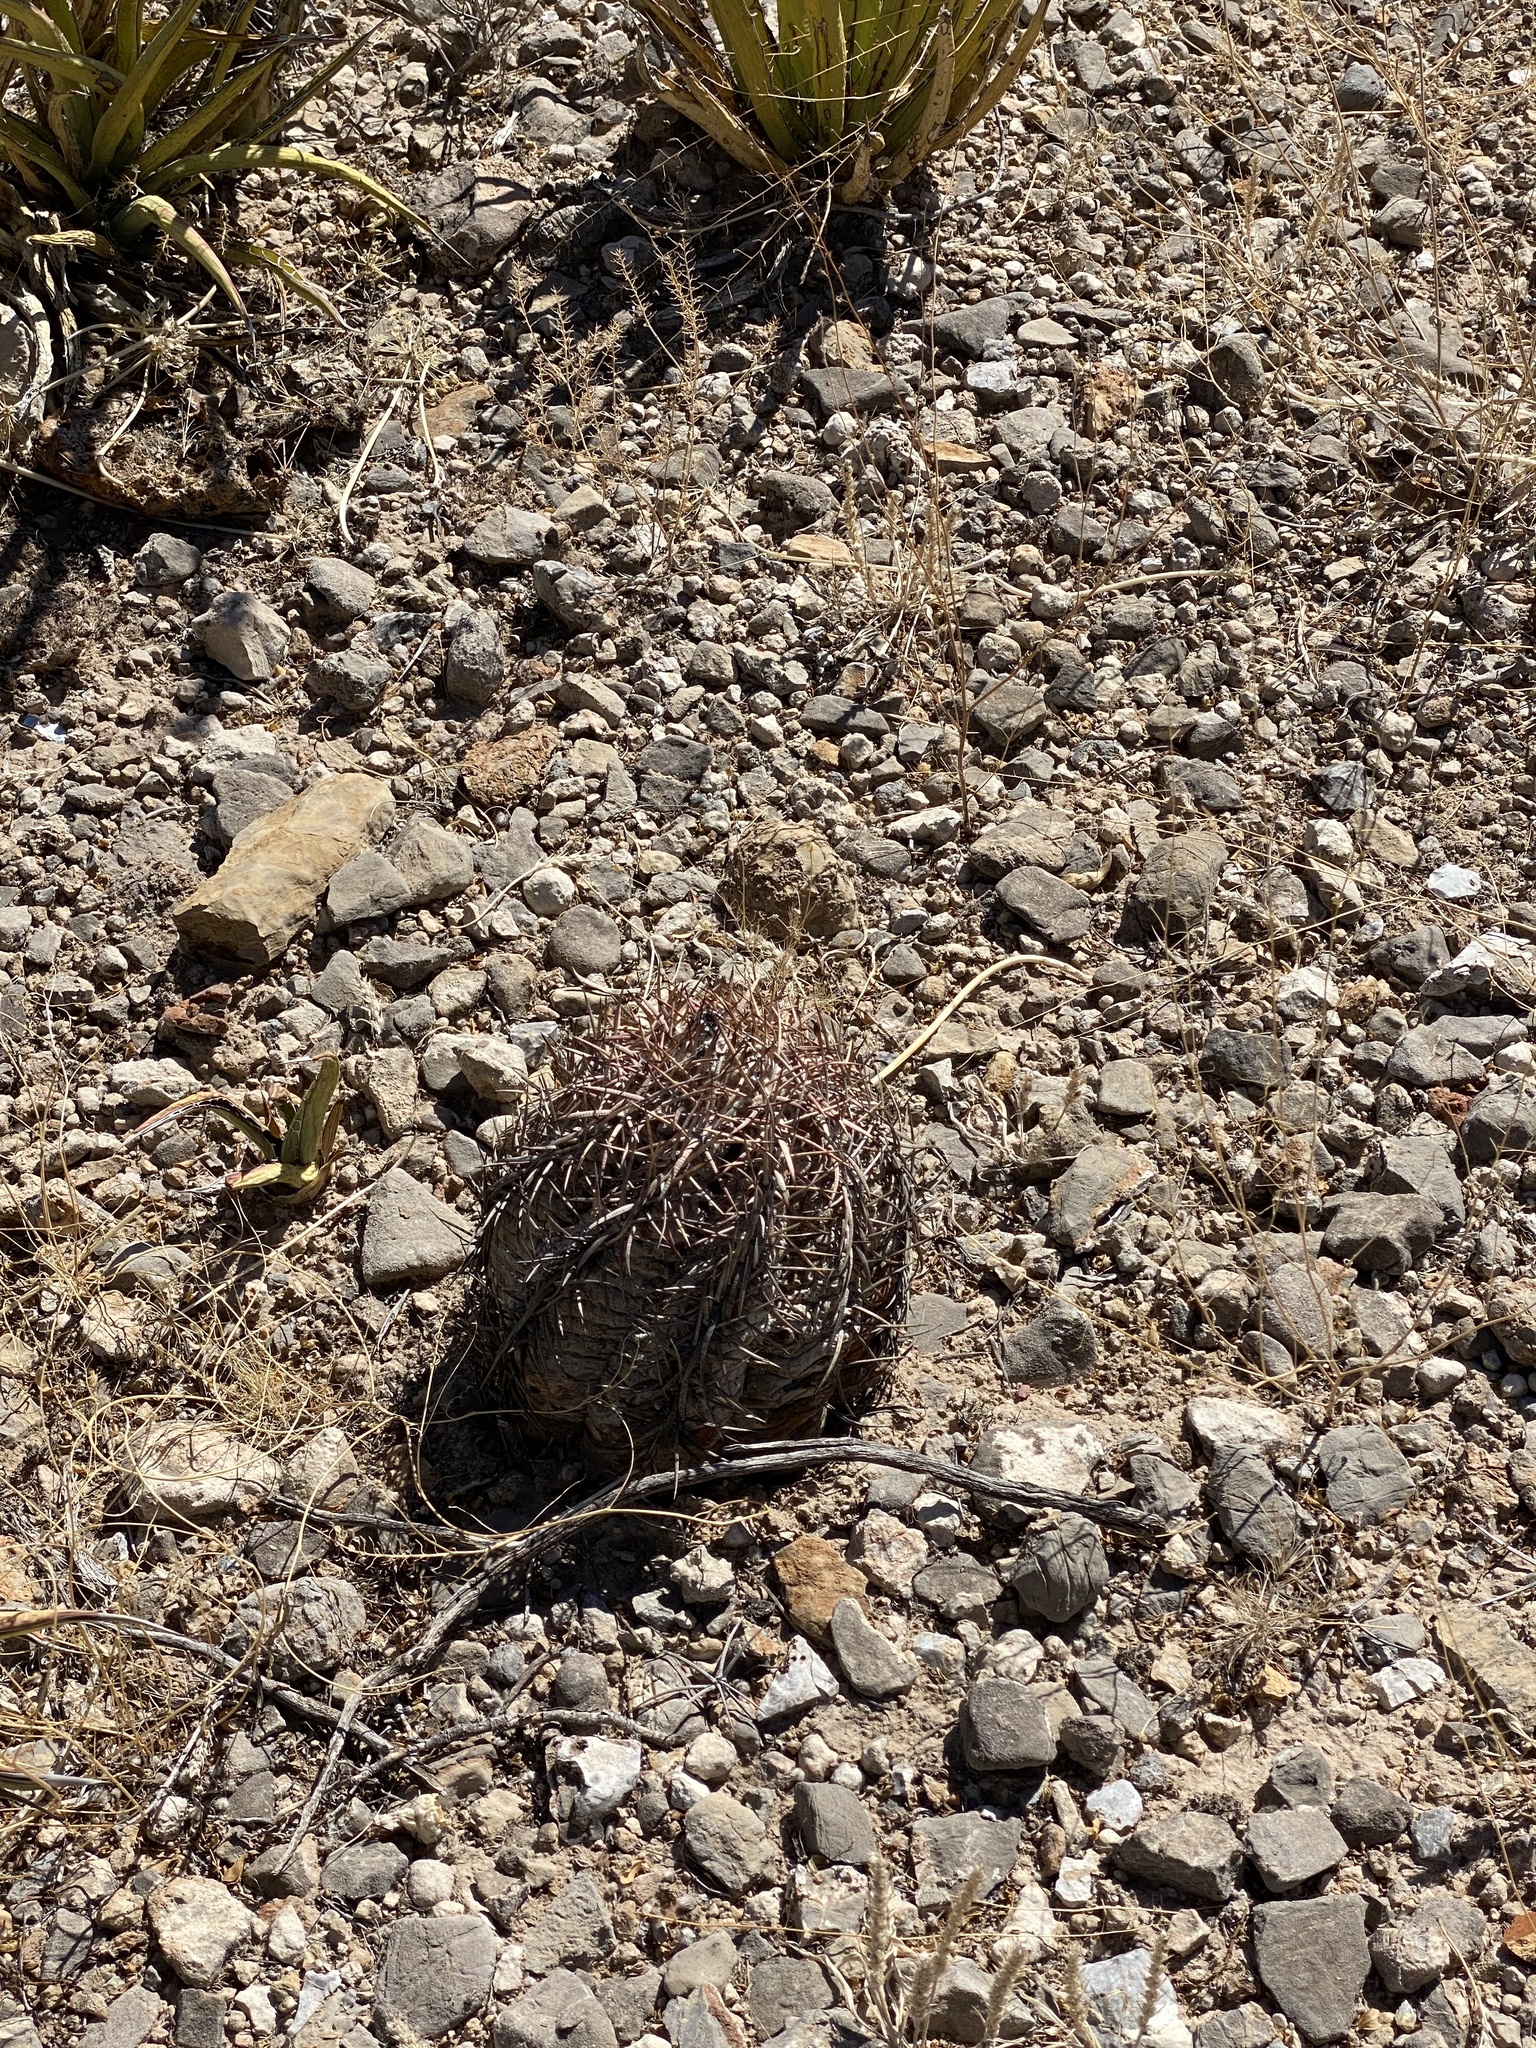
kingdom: Plantae
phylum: Tracheophyta
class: Magnoliopsida
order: Caryophyllales
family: Cactaceae
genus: Echinocactus
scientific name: Echinocactus horizonthalonius
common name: Devilshead
